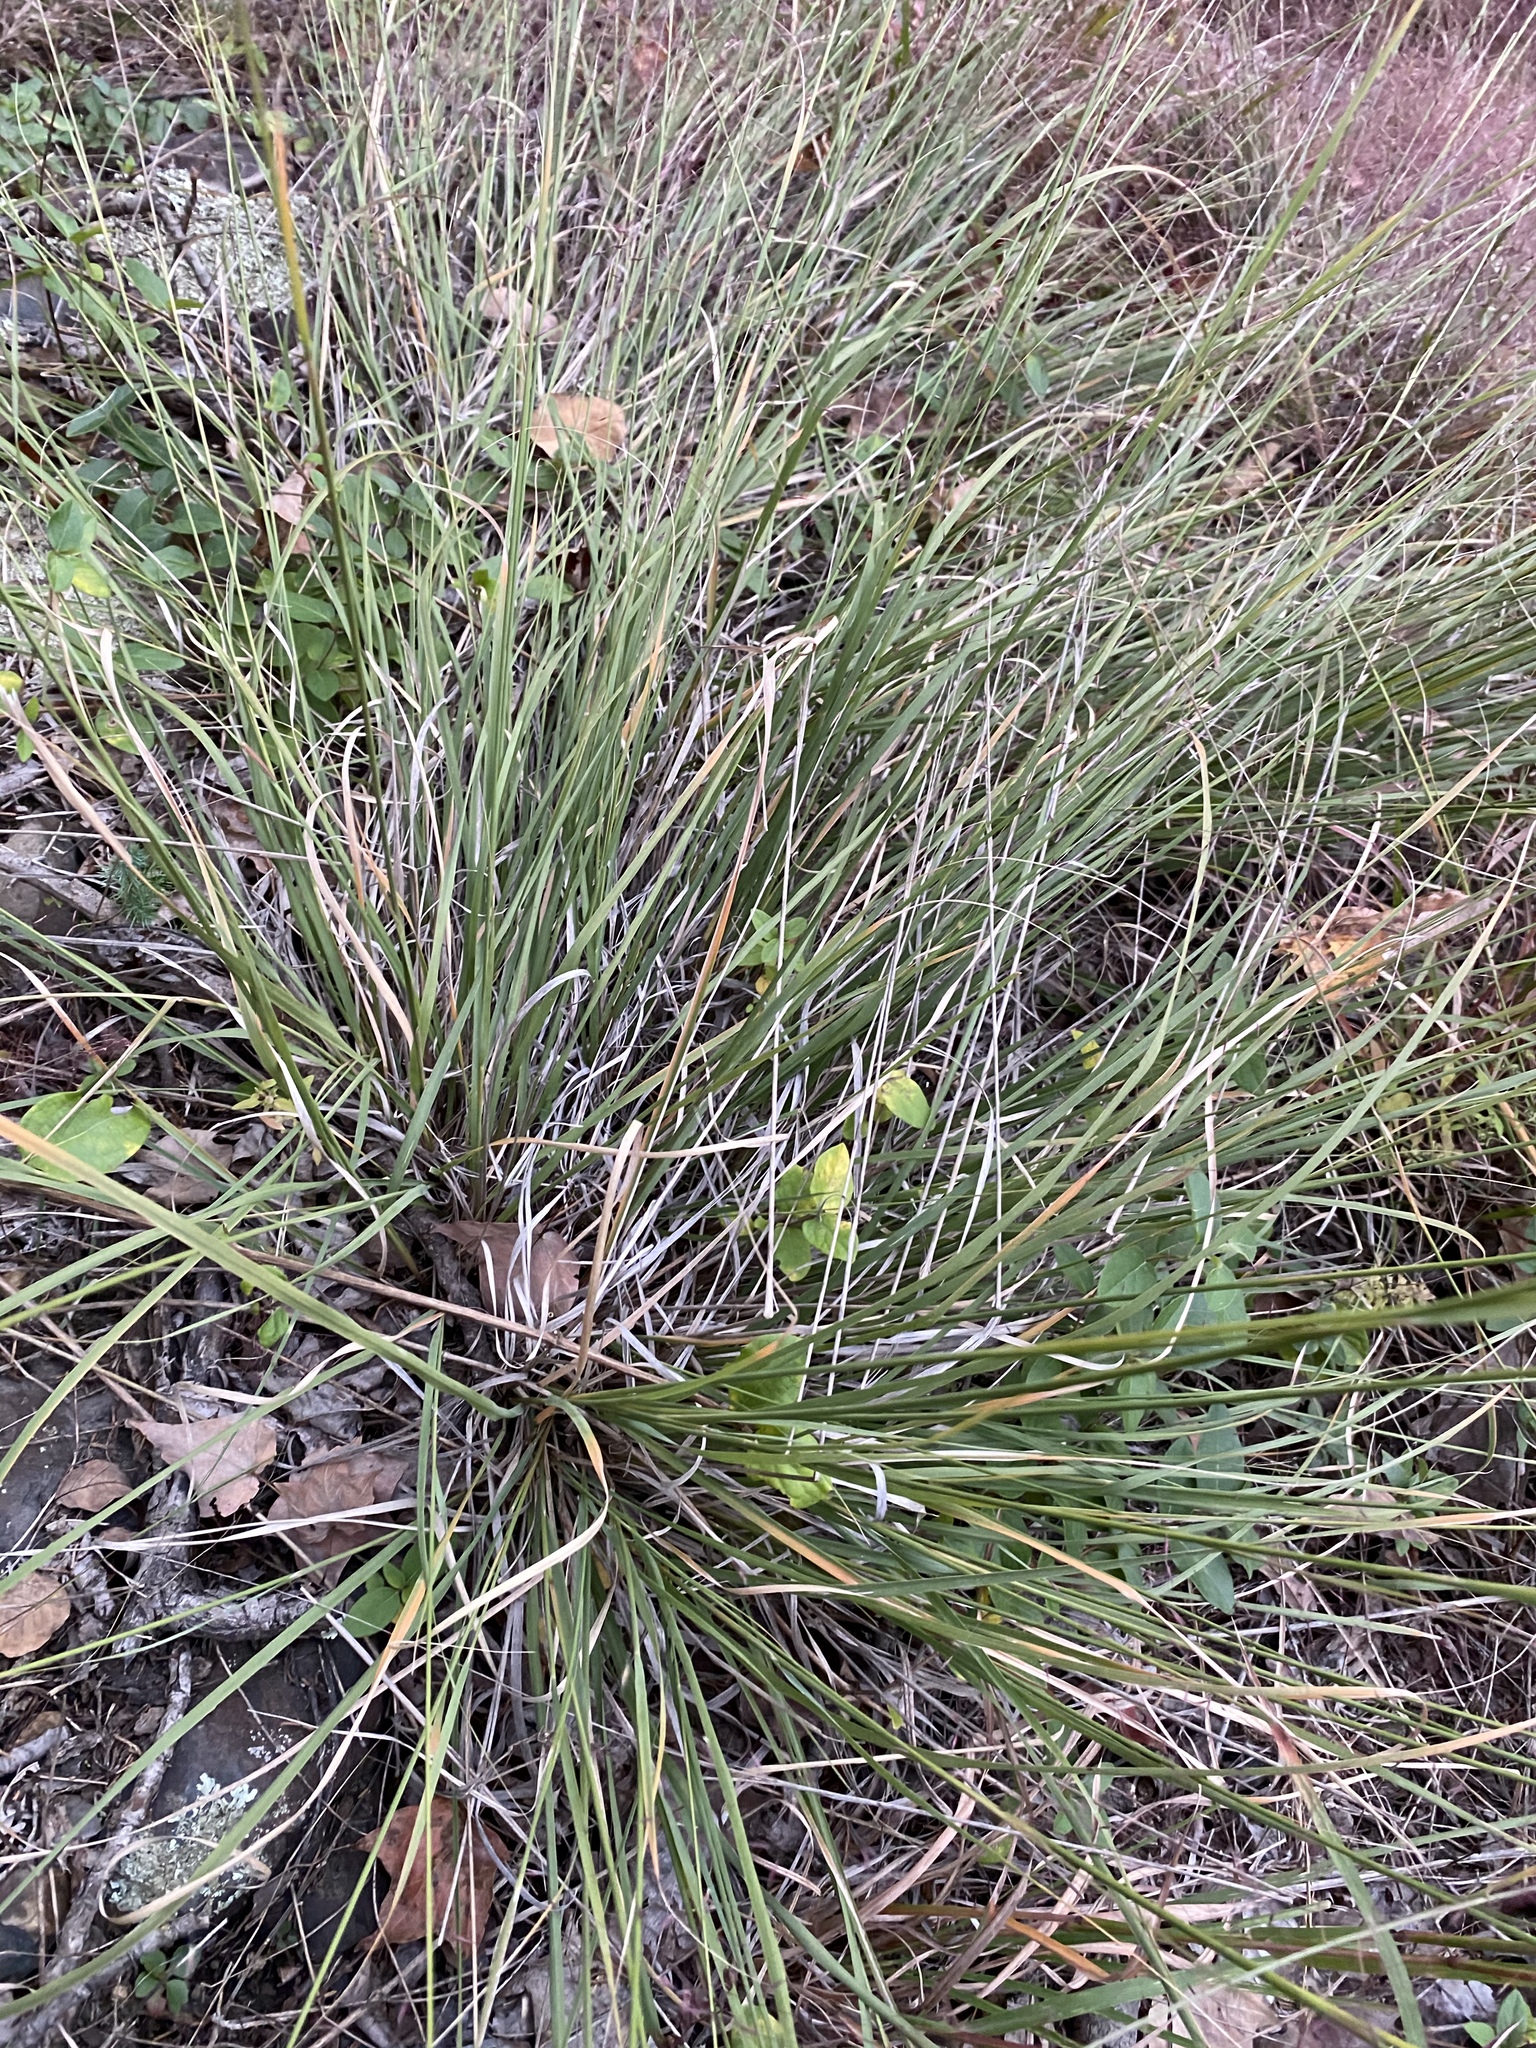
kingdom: Plantae
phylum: Tracheophyta
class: Liliopsida
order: Poales
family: Poaceae
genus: Muhlenbergia
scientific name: Muhlenbergia capillaris
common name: Purple grass
